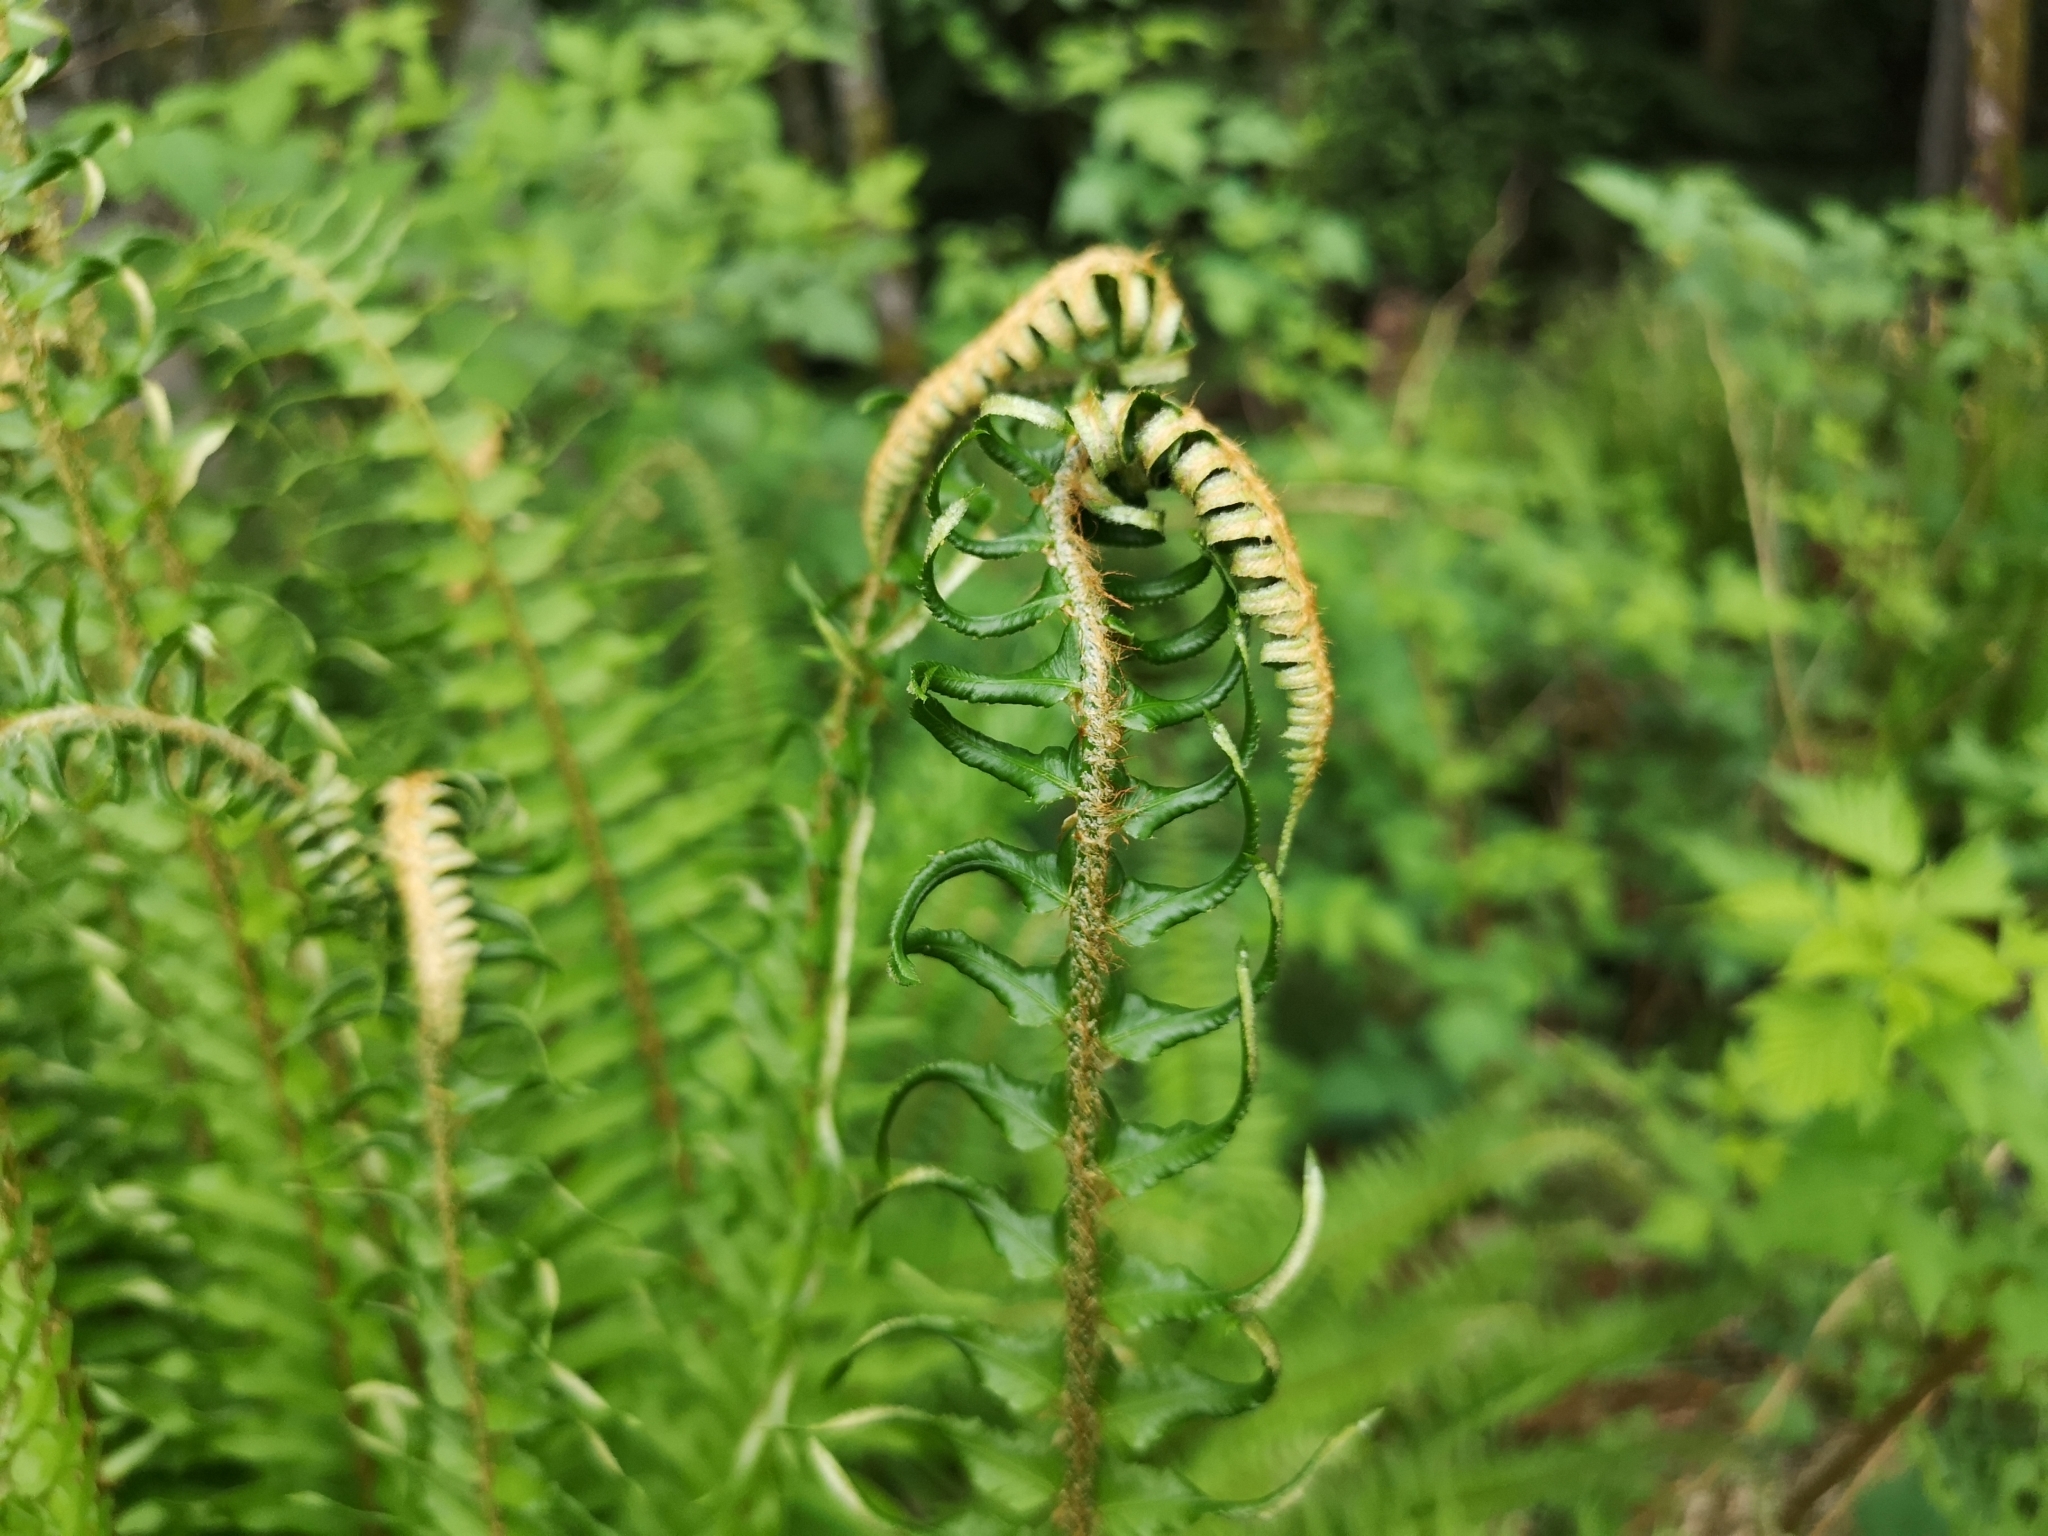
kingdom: Plantae
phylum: Tracheophyta
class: Polypodiopsida
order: Polypodiales
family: Dryopteridaceae
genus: Polystichum
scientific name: Polystichum munitum
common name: Western sword-fern
